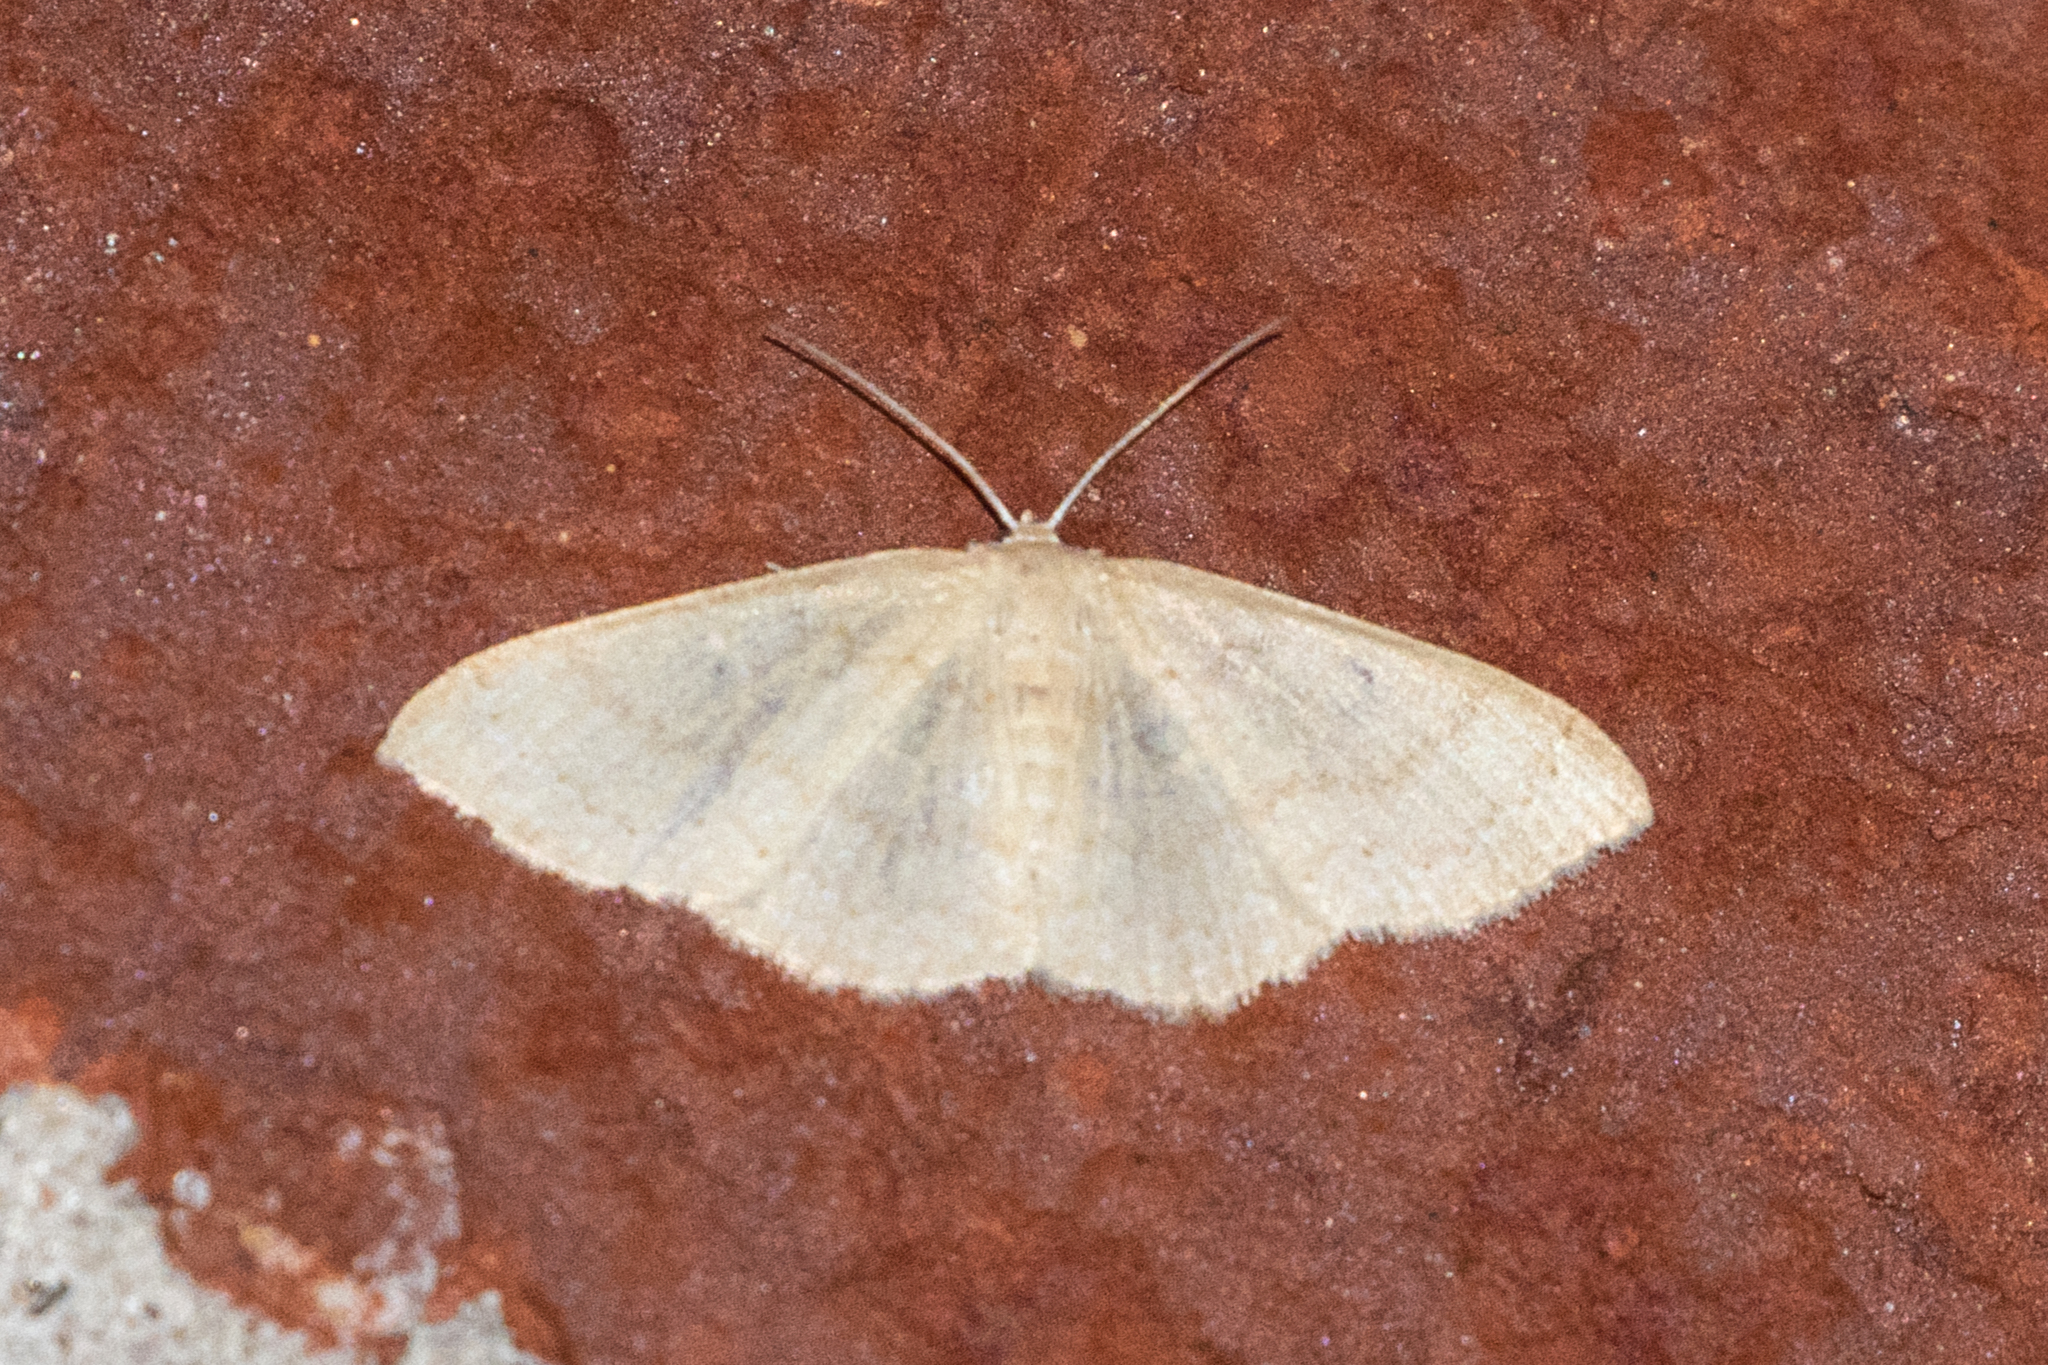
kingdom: Animalia
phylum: Arthropoda
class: Insecta
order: Lepidoptera
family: Geometridae
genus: Pleuroprucha
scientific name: Pleuroprucha insulsaria
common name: Common tan wave
